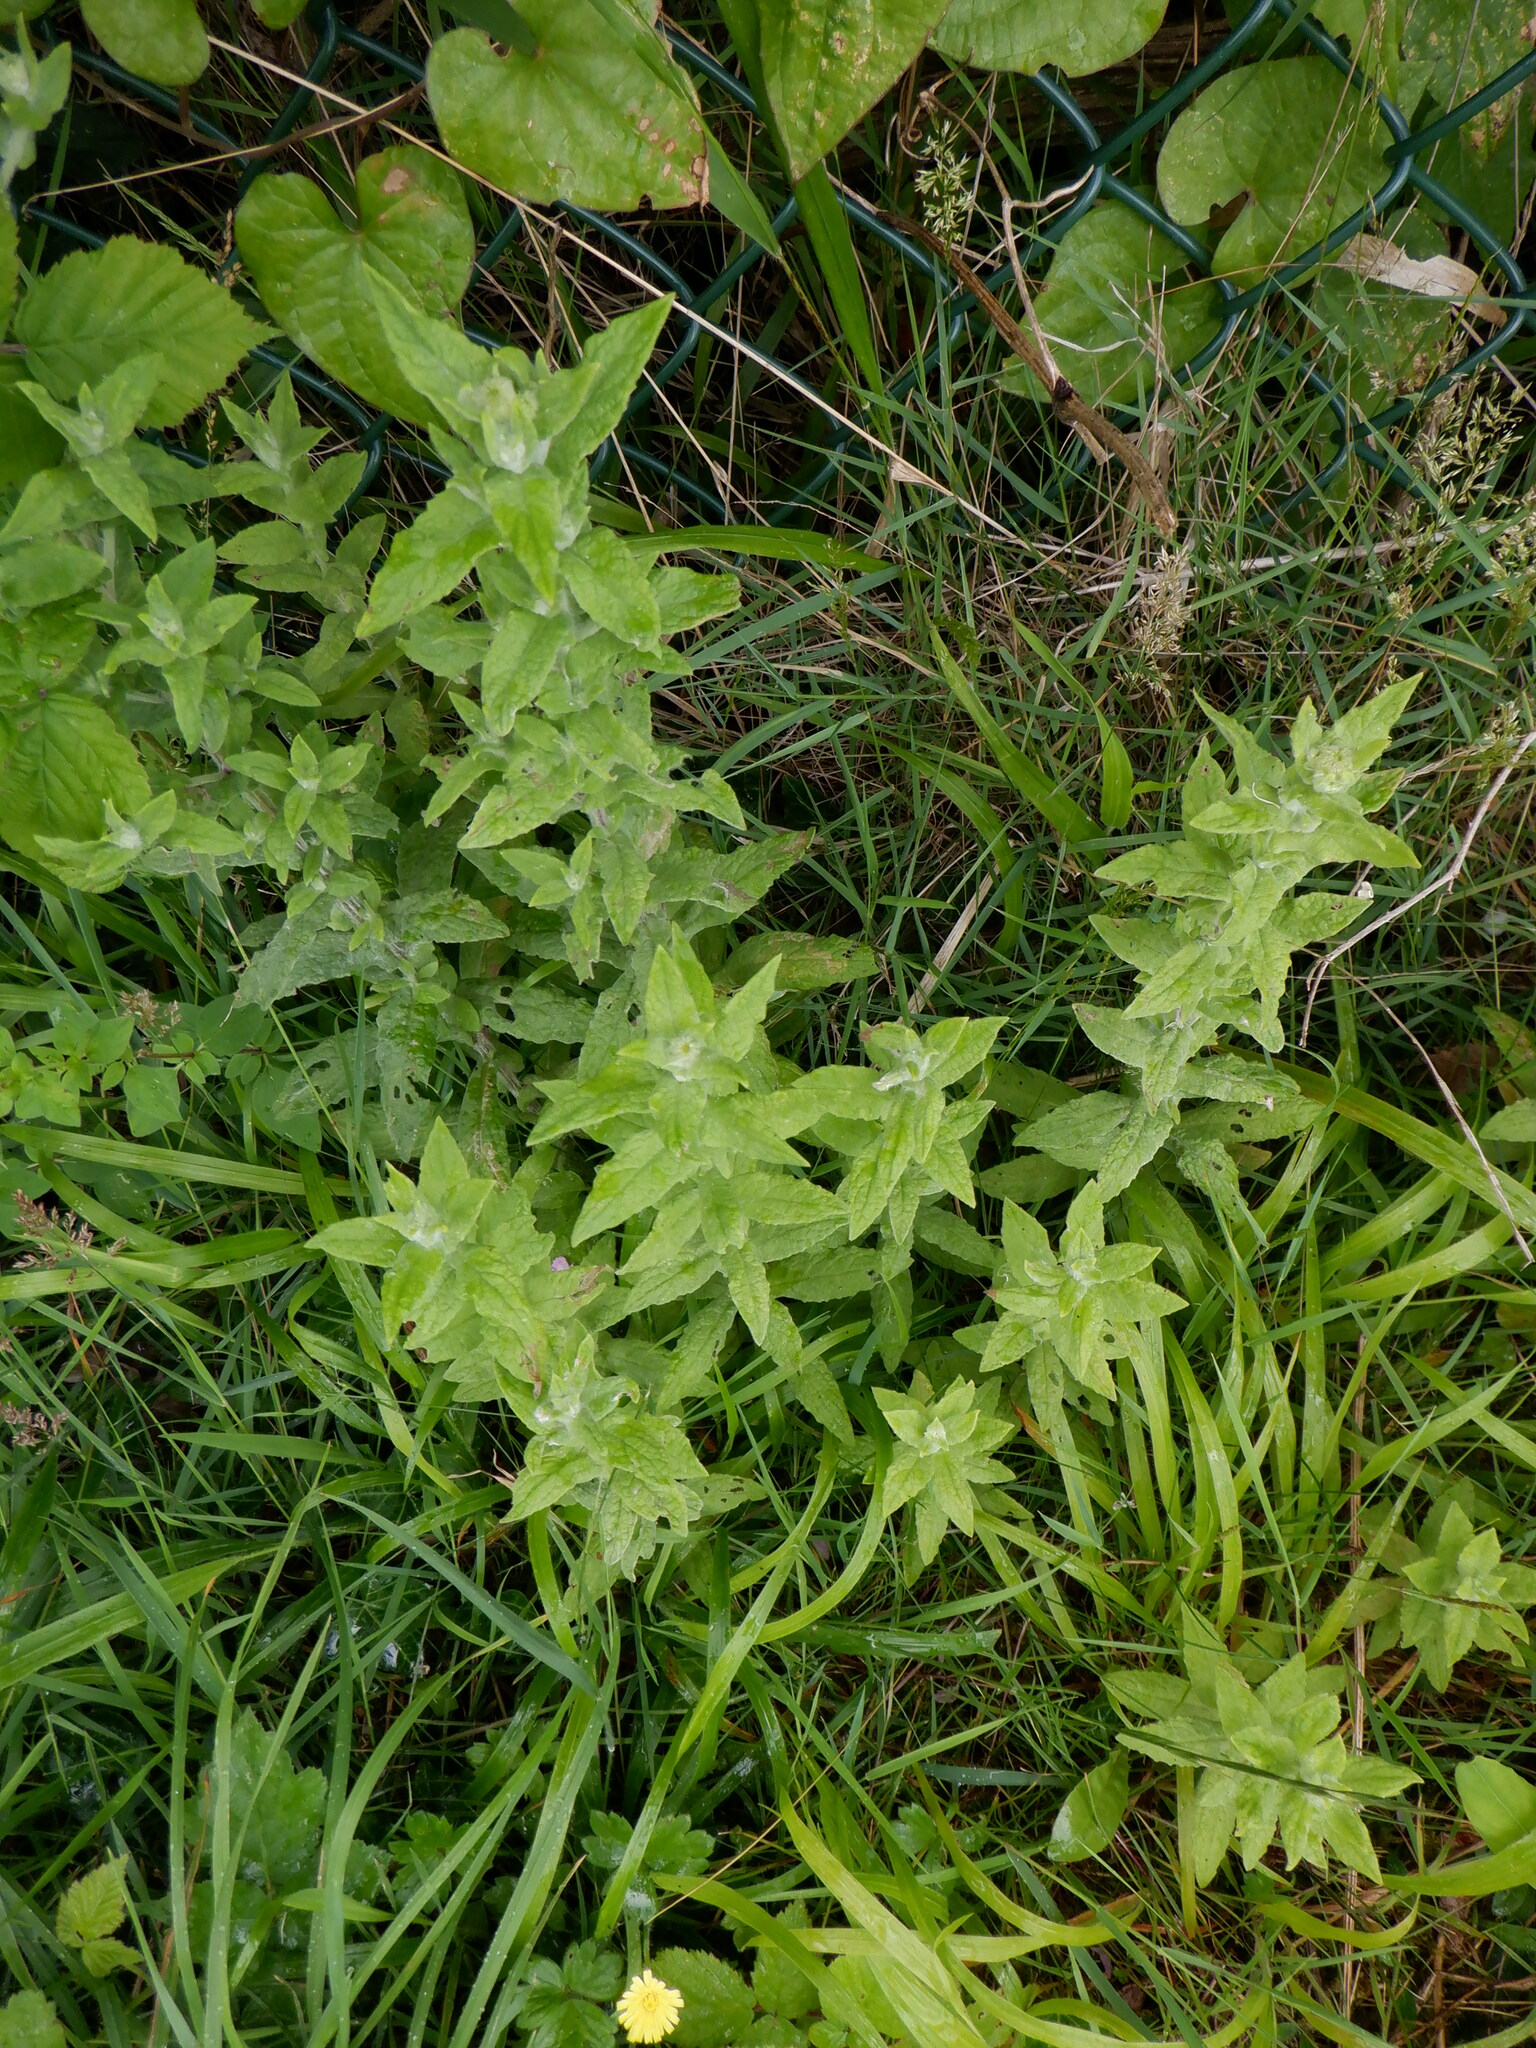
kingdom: Plantae
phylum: Tracheophyta
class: Magnoliopsida
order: Asterales
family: Asteraceae
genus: Pulicaria
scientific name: Pulicaria dysenterica
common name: Common fleabane
